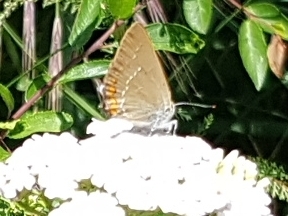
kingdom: Animalia
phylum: Arthropoda
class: Insecta
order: Lepidoptera
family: Lycaenidae
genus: Strymon
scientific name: Strymon acaciae
